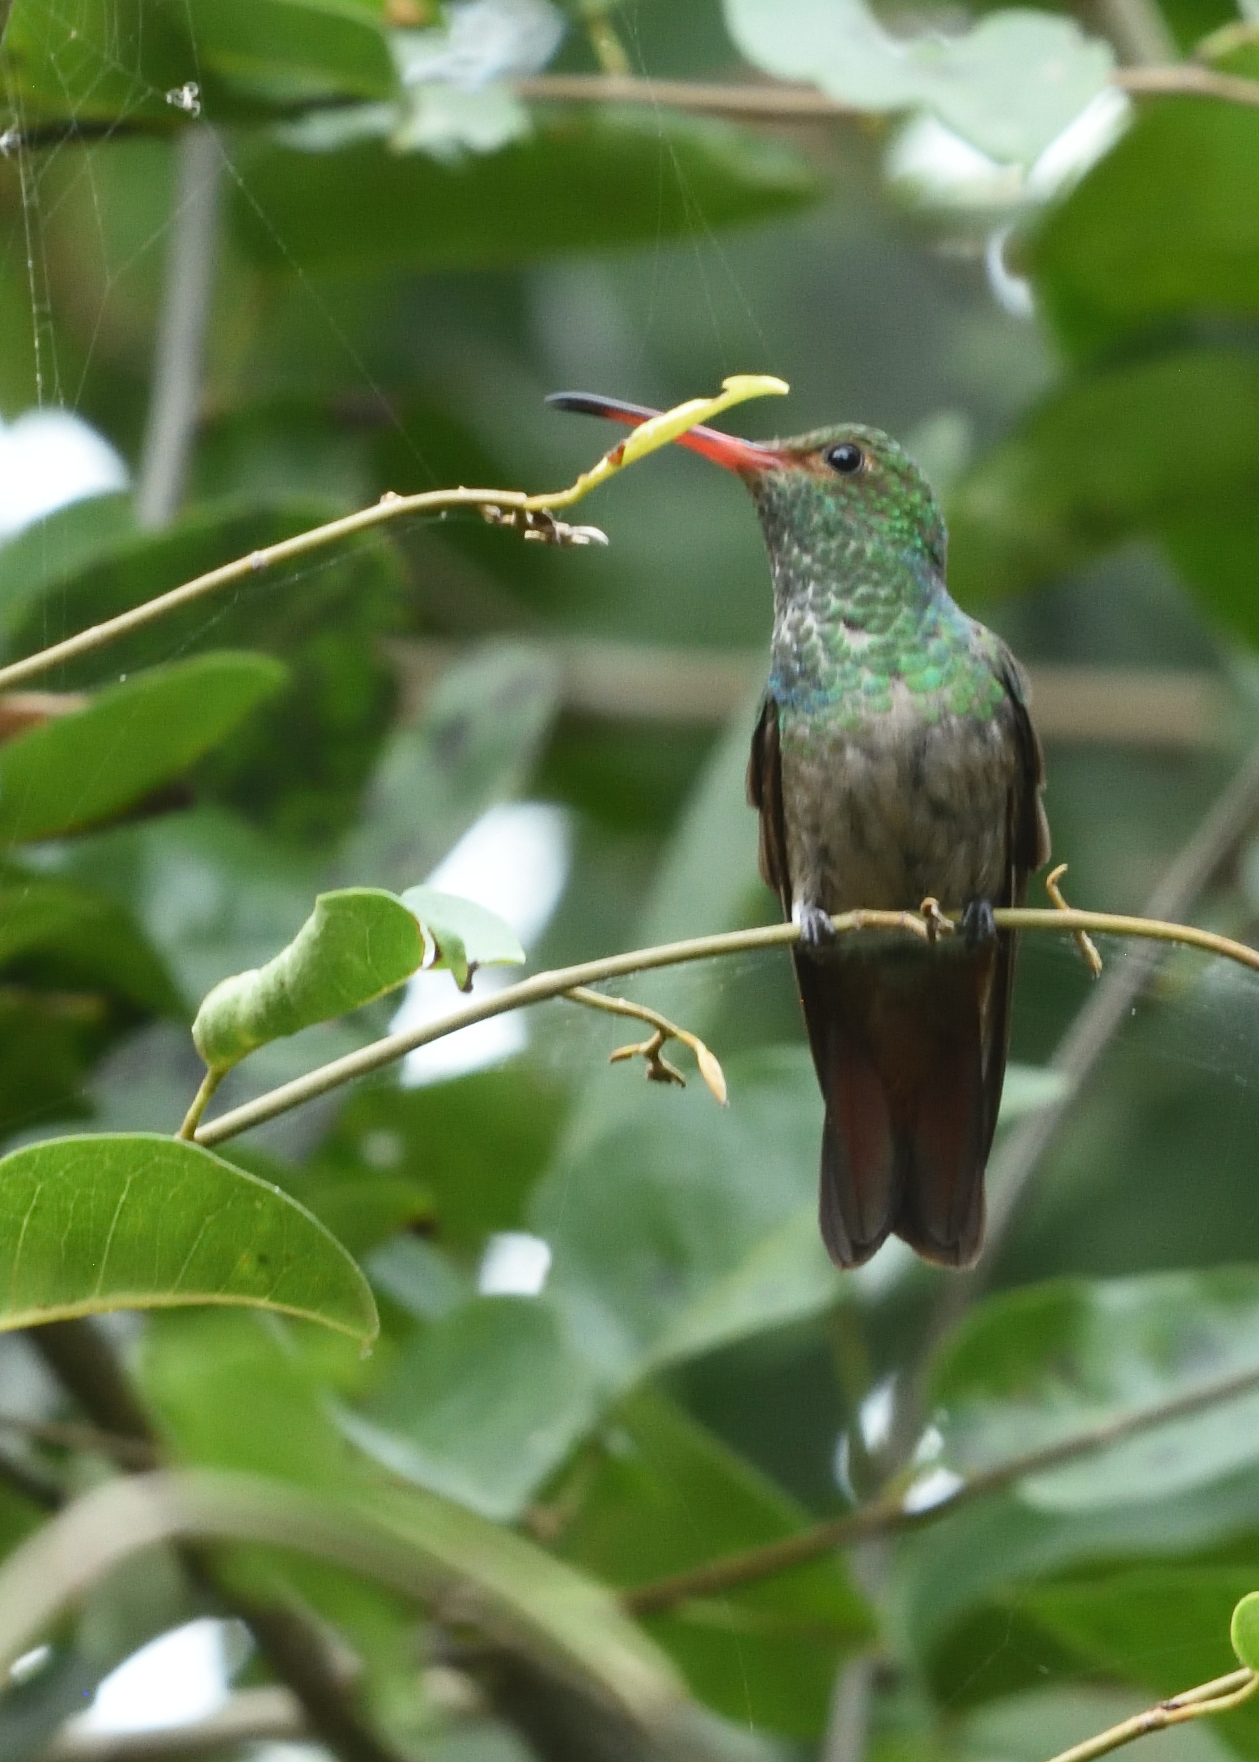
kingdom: Animalia
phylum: Chordata
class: Aves
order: Apodiformes
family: Trochilidae
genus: Amazilia
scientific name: Amazilia tzacatl
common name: Rufous-tailed hummingbird
